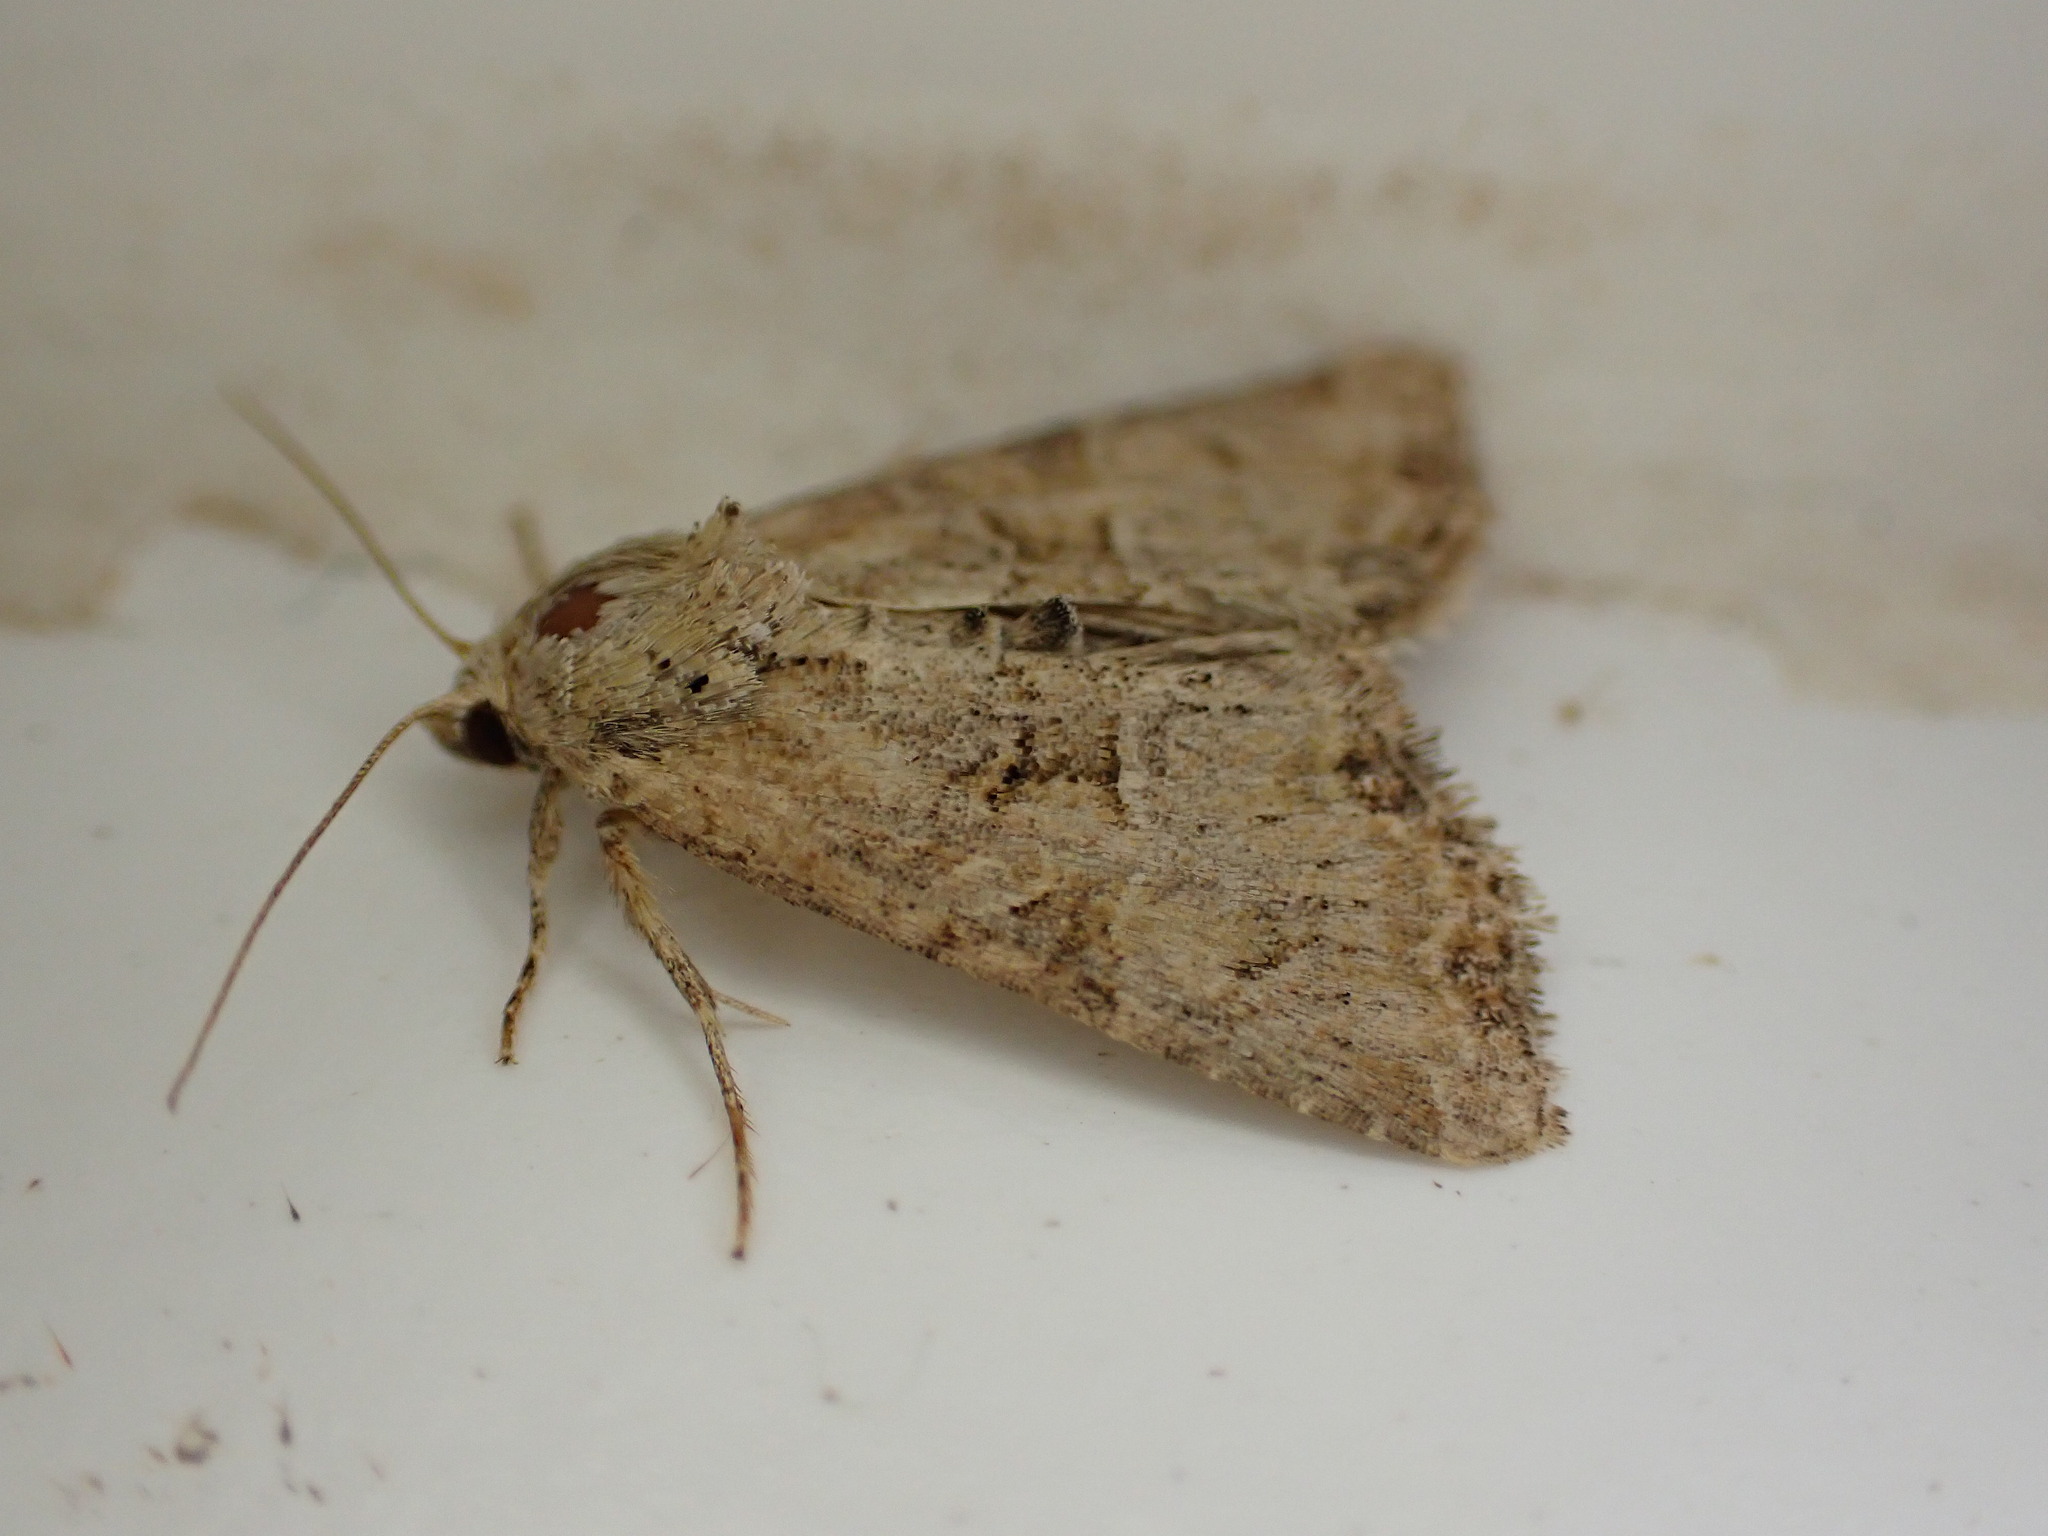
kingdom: Animalia
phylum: Arthropoda
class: Insecta
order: Lepidoptera
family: Noctuidae
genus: Mesoligia
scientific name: Mesoligia furuncula
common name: Cloaked minor
